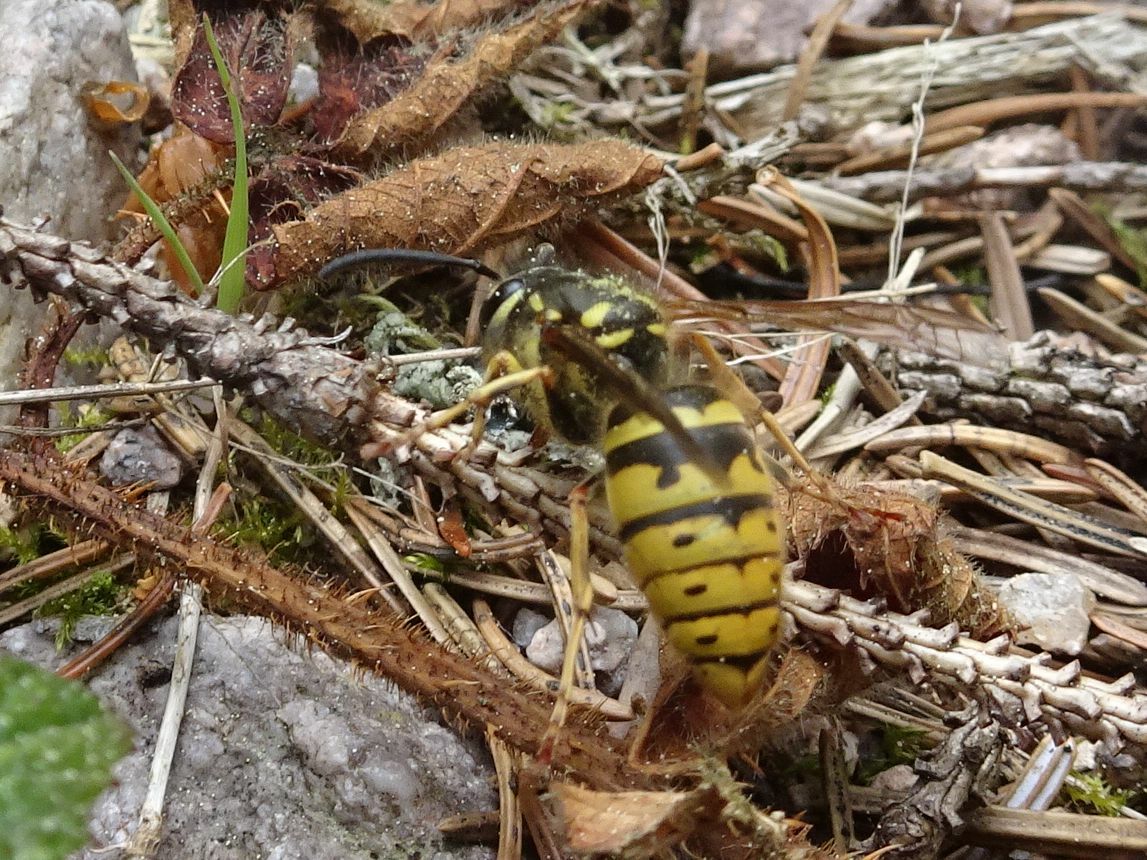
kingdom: Animalia
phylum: Arthropoda
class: Insecta
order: Hymenoptera
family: Vespidae
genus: Vespula
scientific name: Vespula vulgaris
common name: Common wasp
